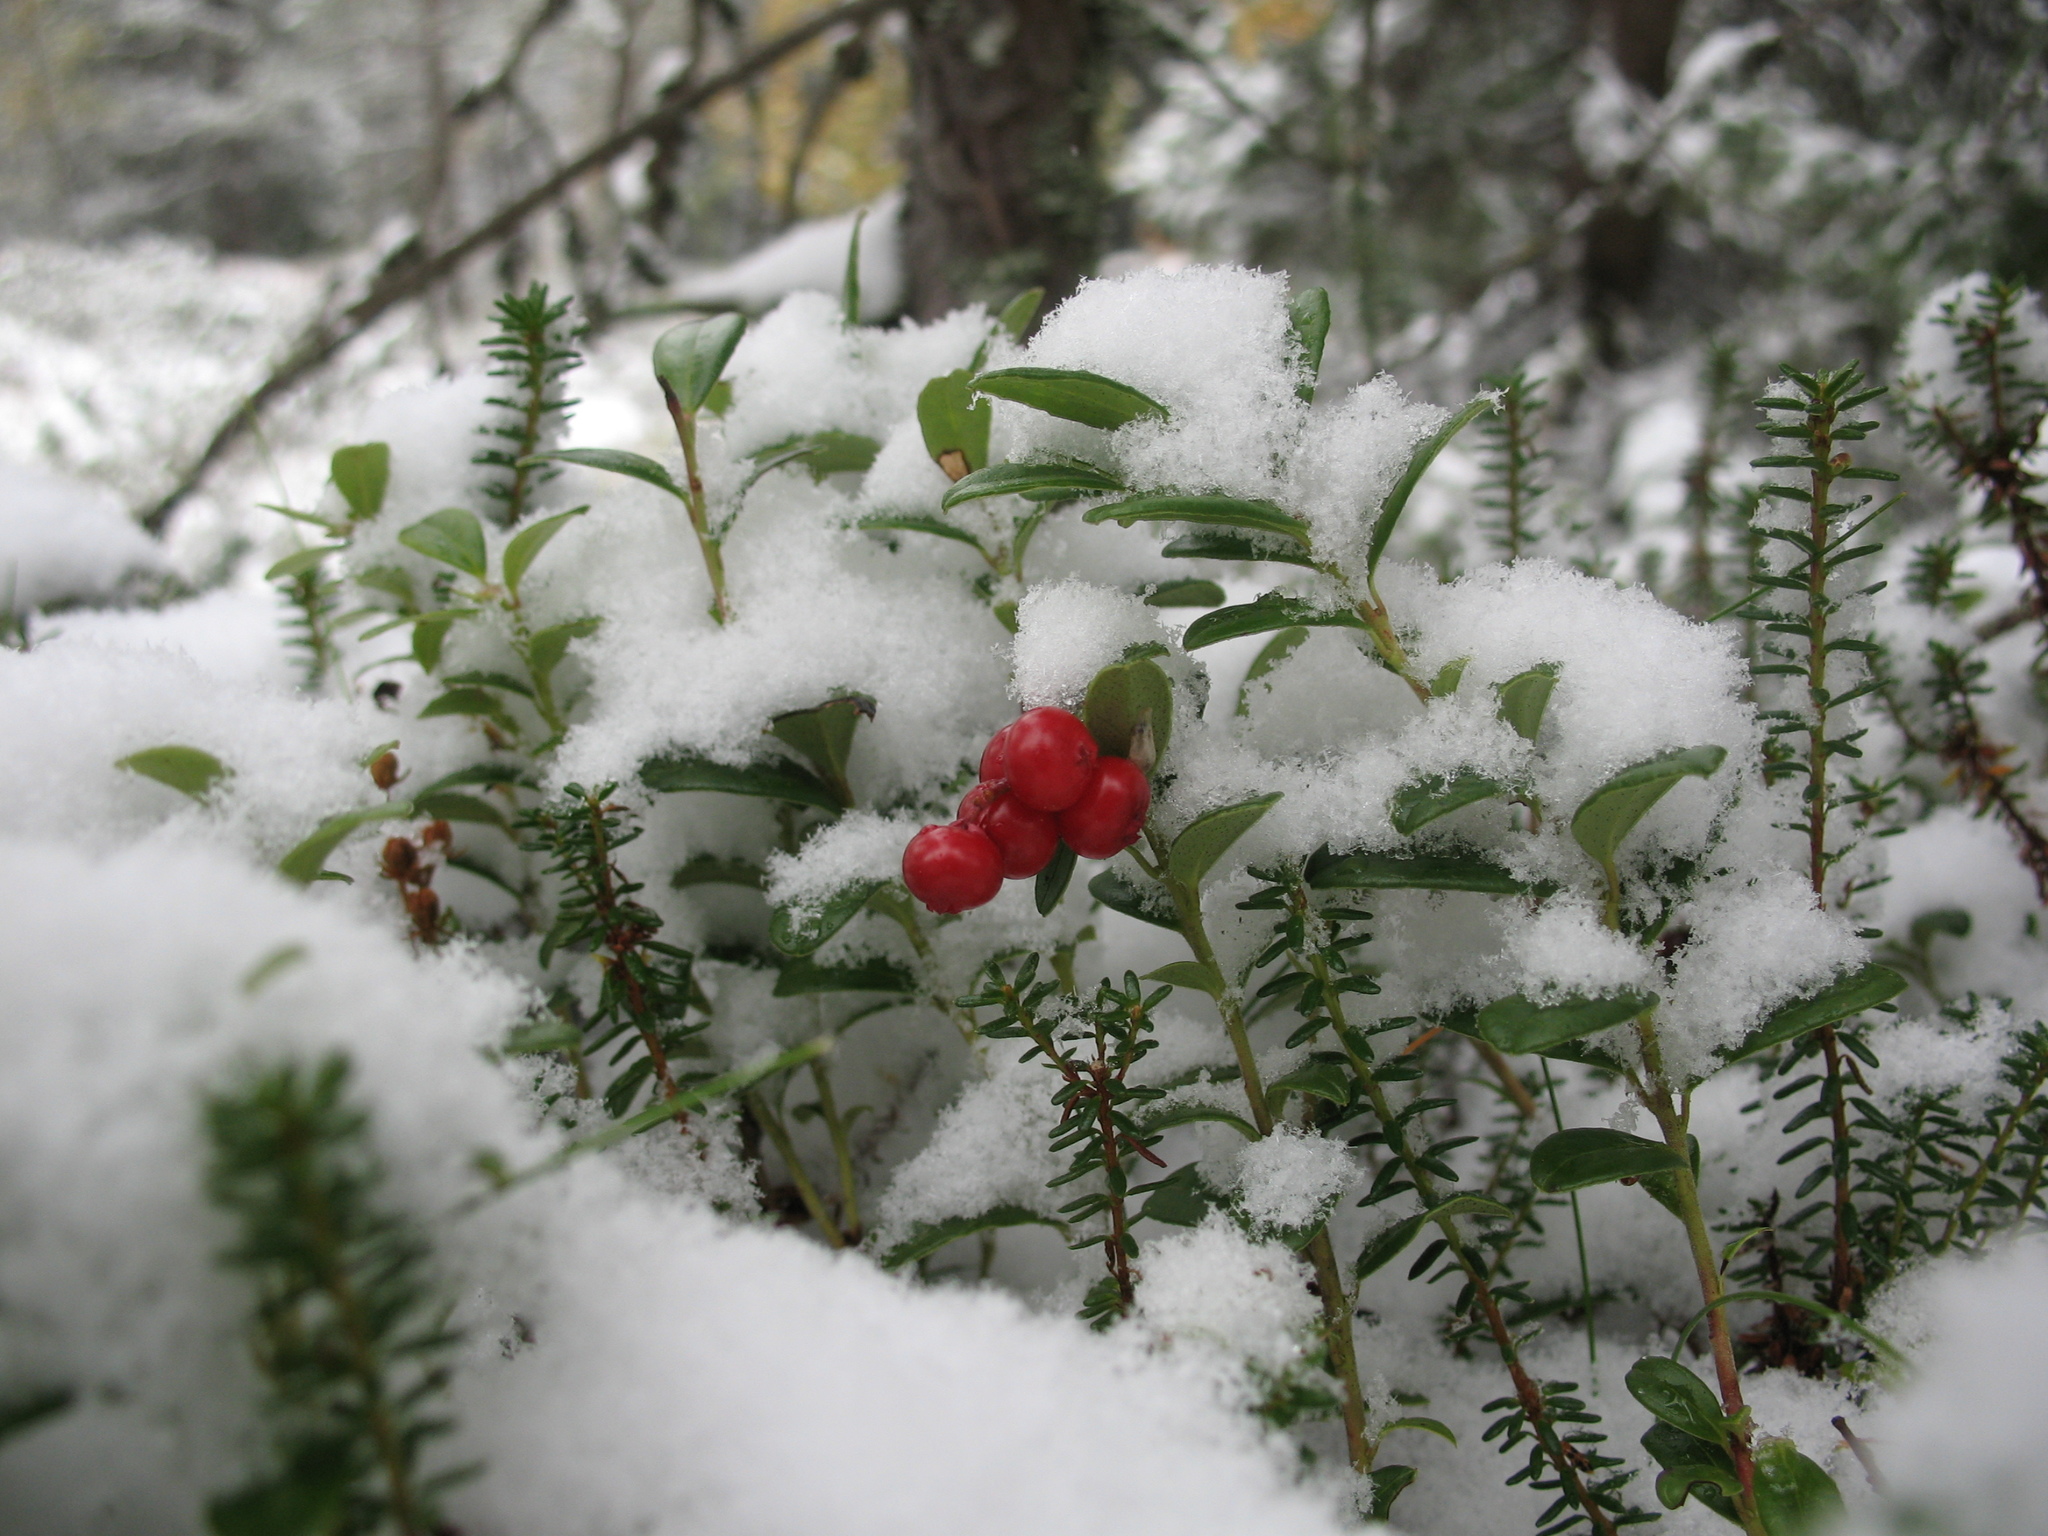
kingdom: Plantae
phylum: Tracheophyta
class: Magnoliopsida
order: Ericales
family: Ericaceae
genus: Vaccinium
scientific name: Vaccinium vitis-idaea
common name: Cowberry
